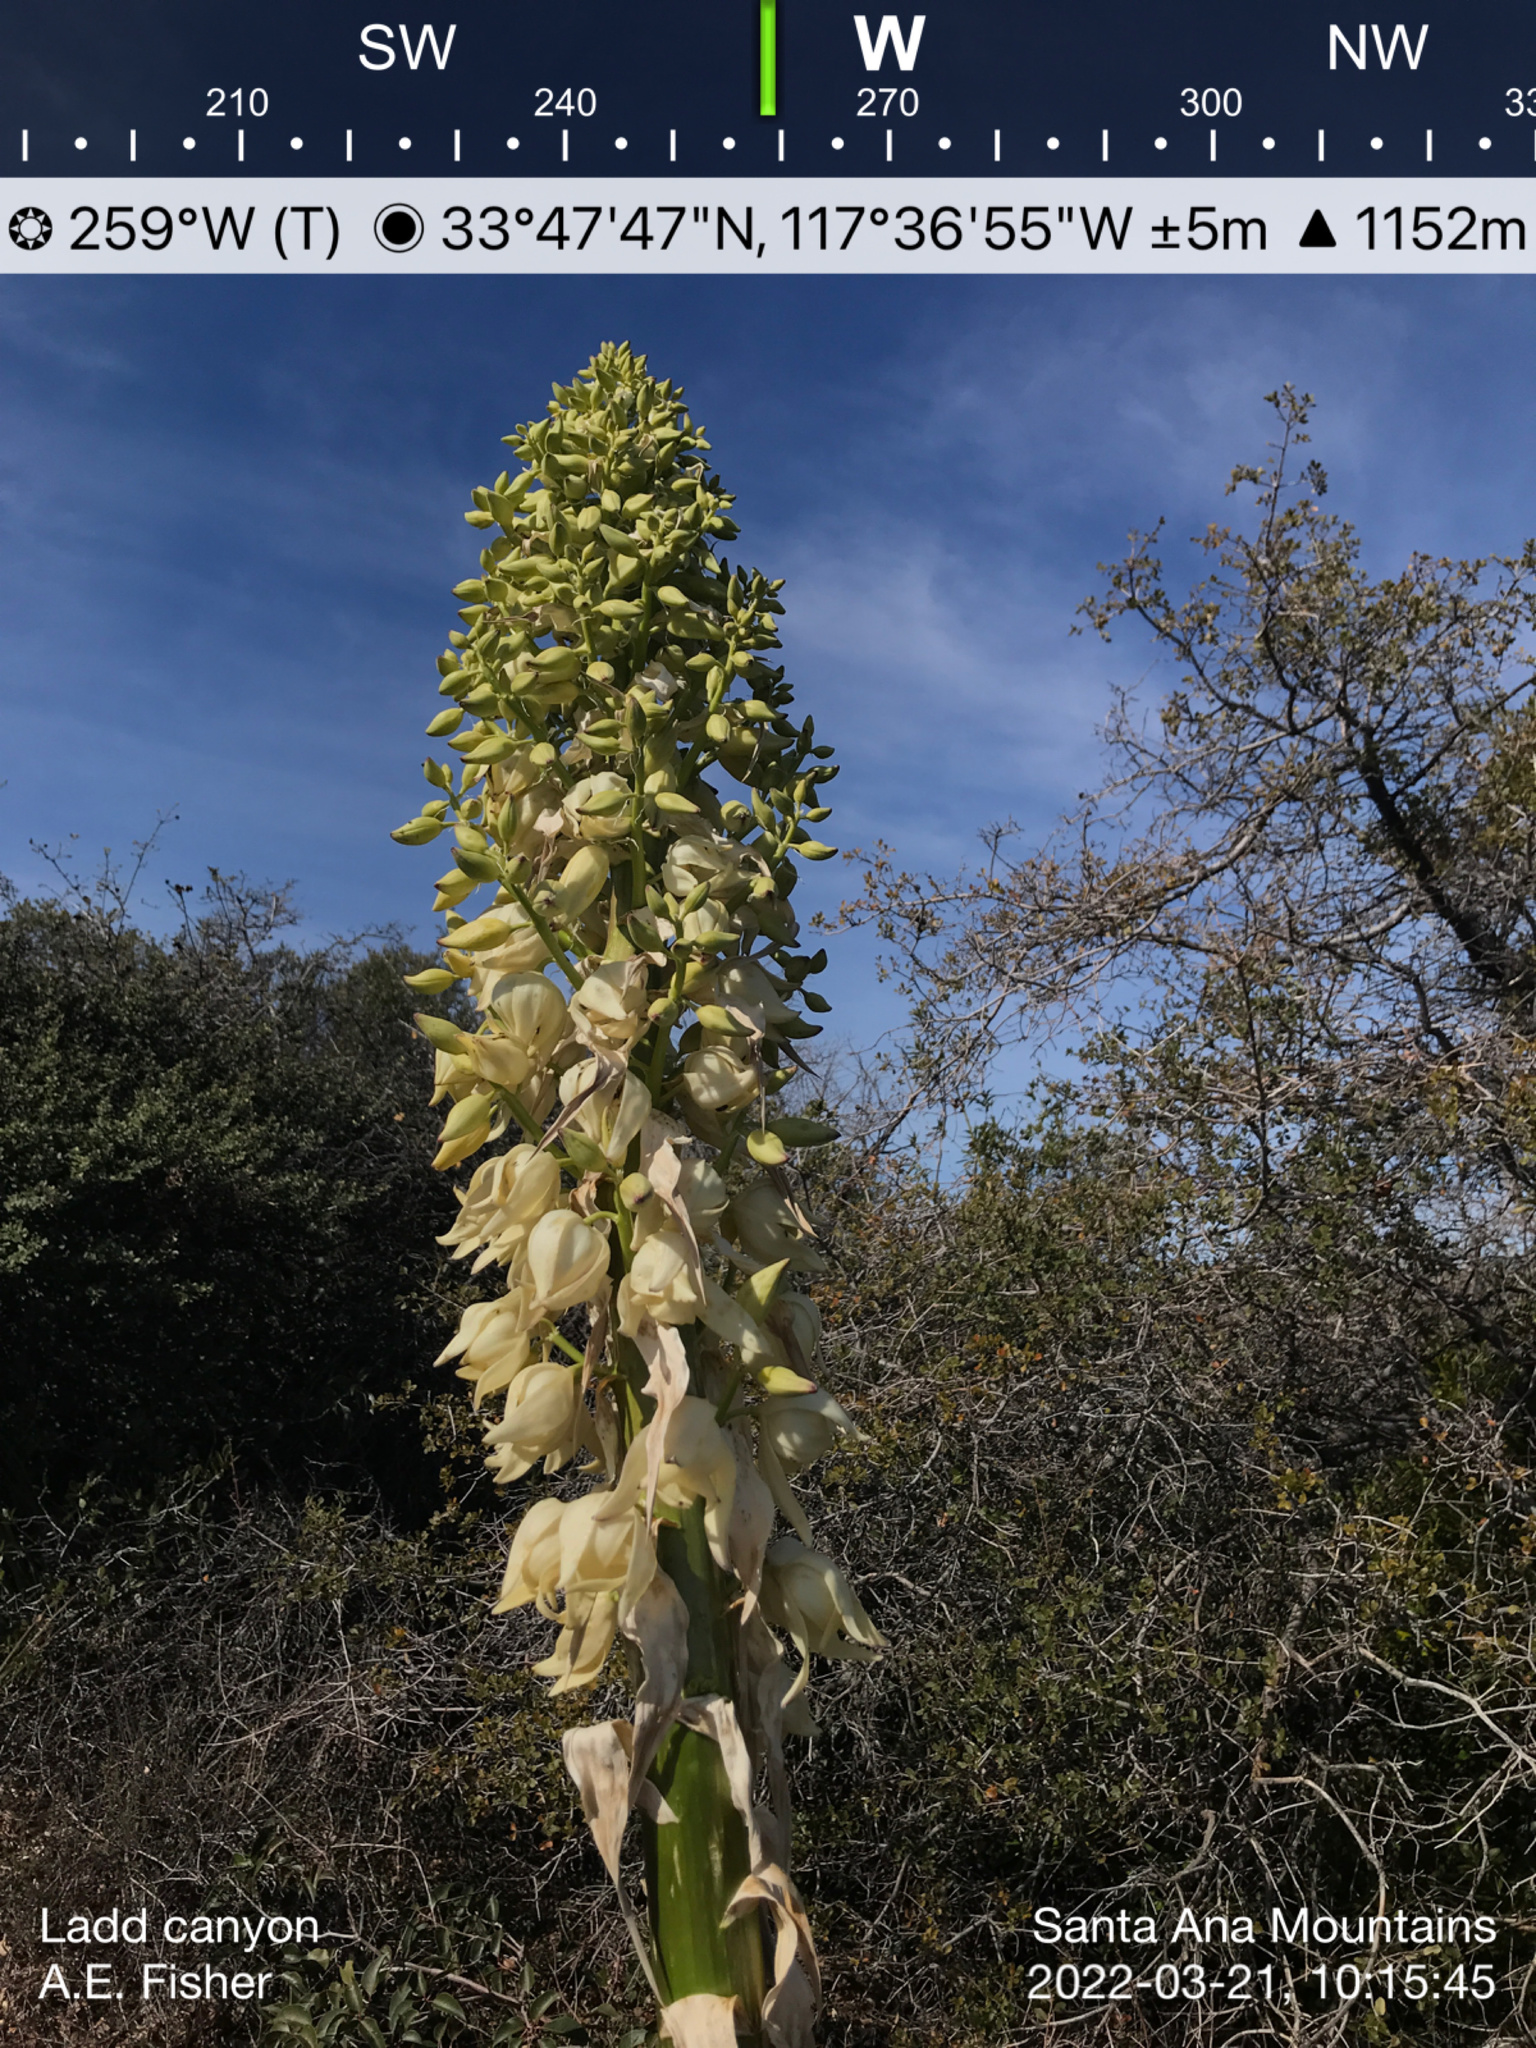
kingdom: Plantae
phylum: Tracheophyta
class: Liliopsida
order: Asparagales
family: Asparagaceae
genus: Hesperoyucca
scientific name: Hesperoyucca whipplei
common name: Our lord's-candle
